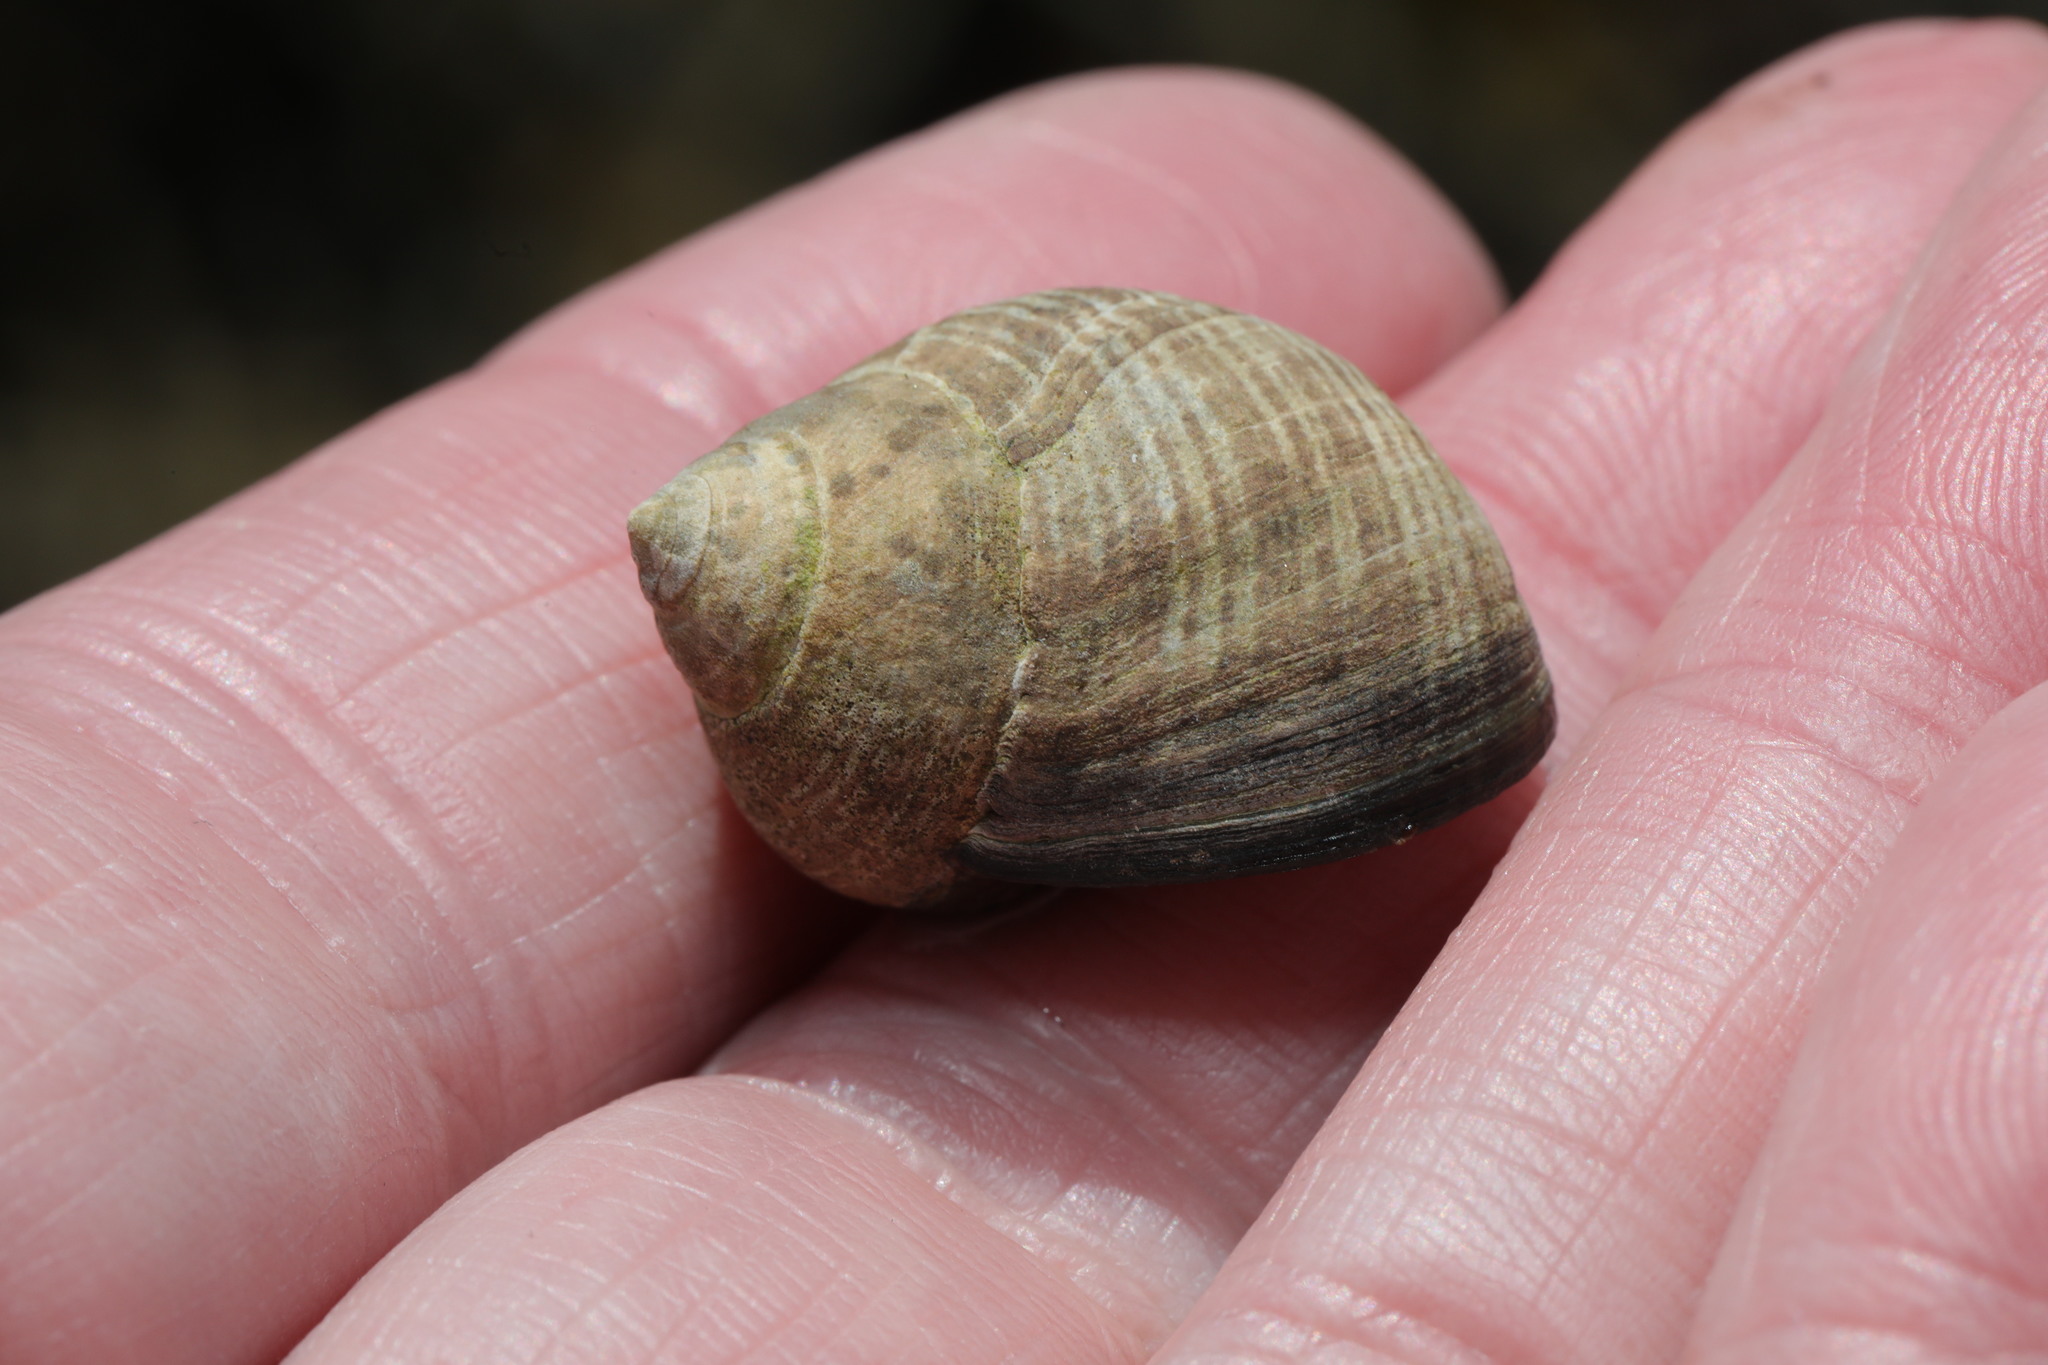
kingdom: Animalia
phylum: Mollusca
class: Gastropoda
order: Littorinimorpha
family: Littorinidae
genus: Littorina
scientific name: Littorina littorea
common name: Common periwinkle
